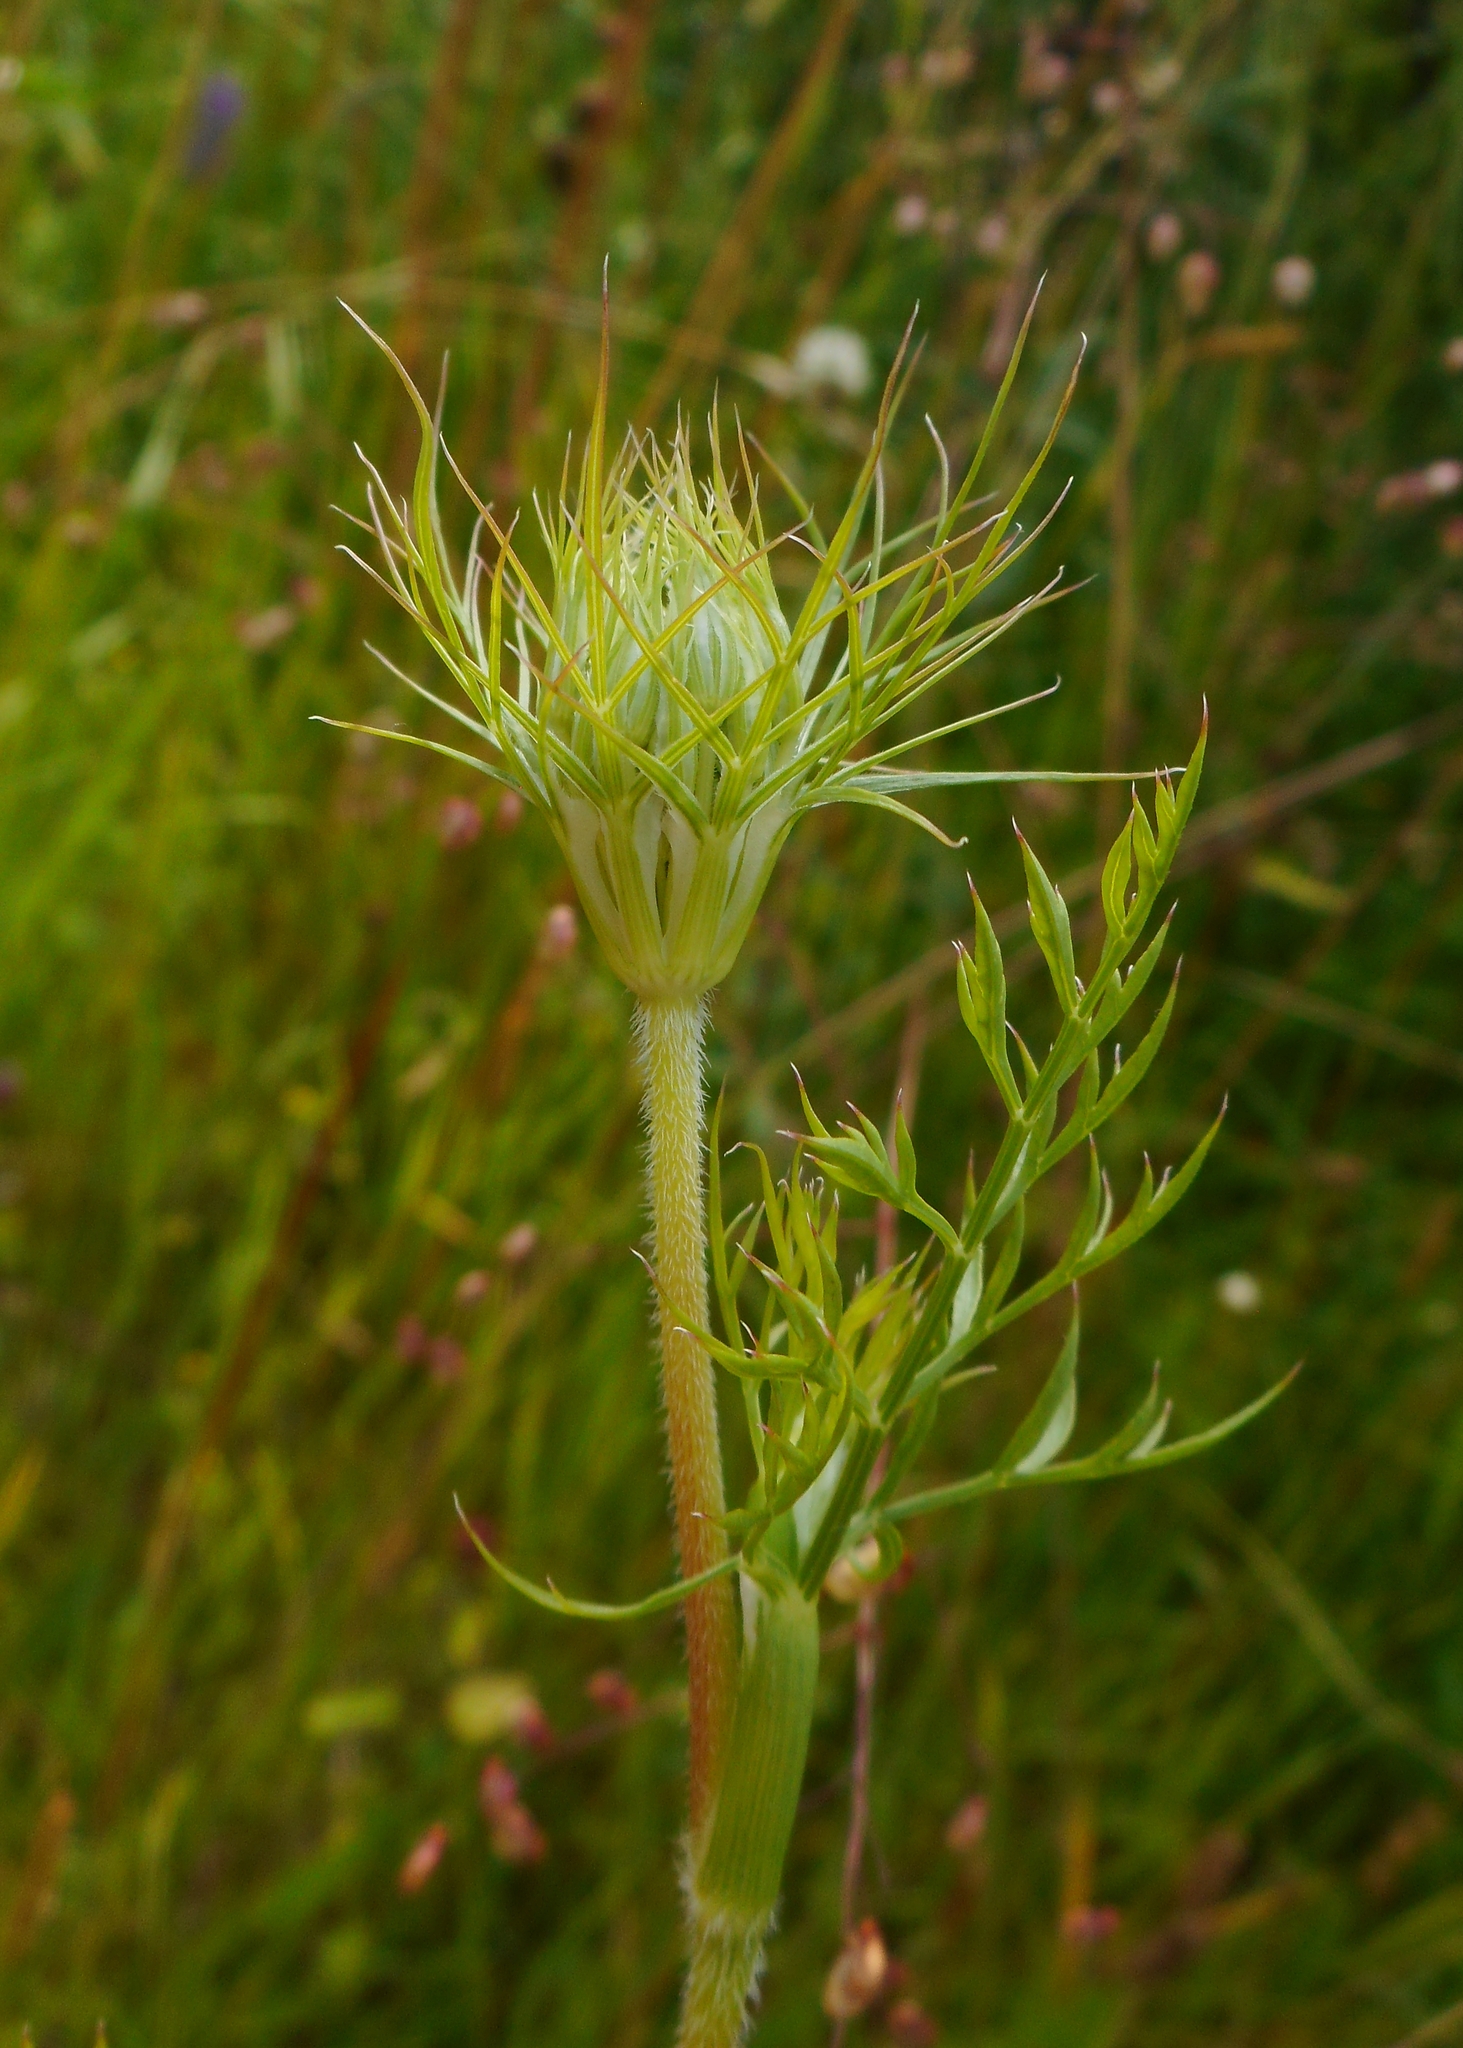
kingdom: Plantae
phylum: Tracheophyta
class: Magnoliopsida
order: Apiales
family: Apiaceae
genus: Daucus
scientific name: Daucus carota
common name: Wild carrot
